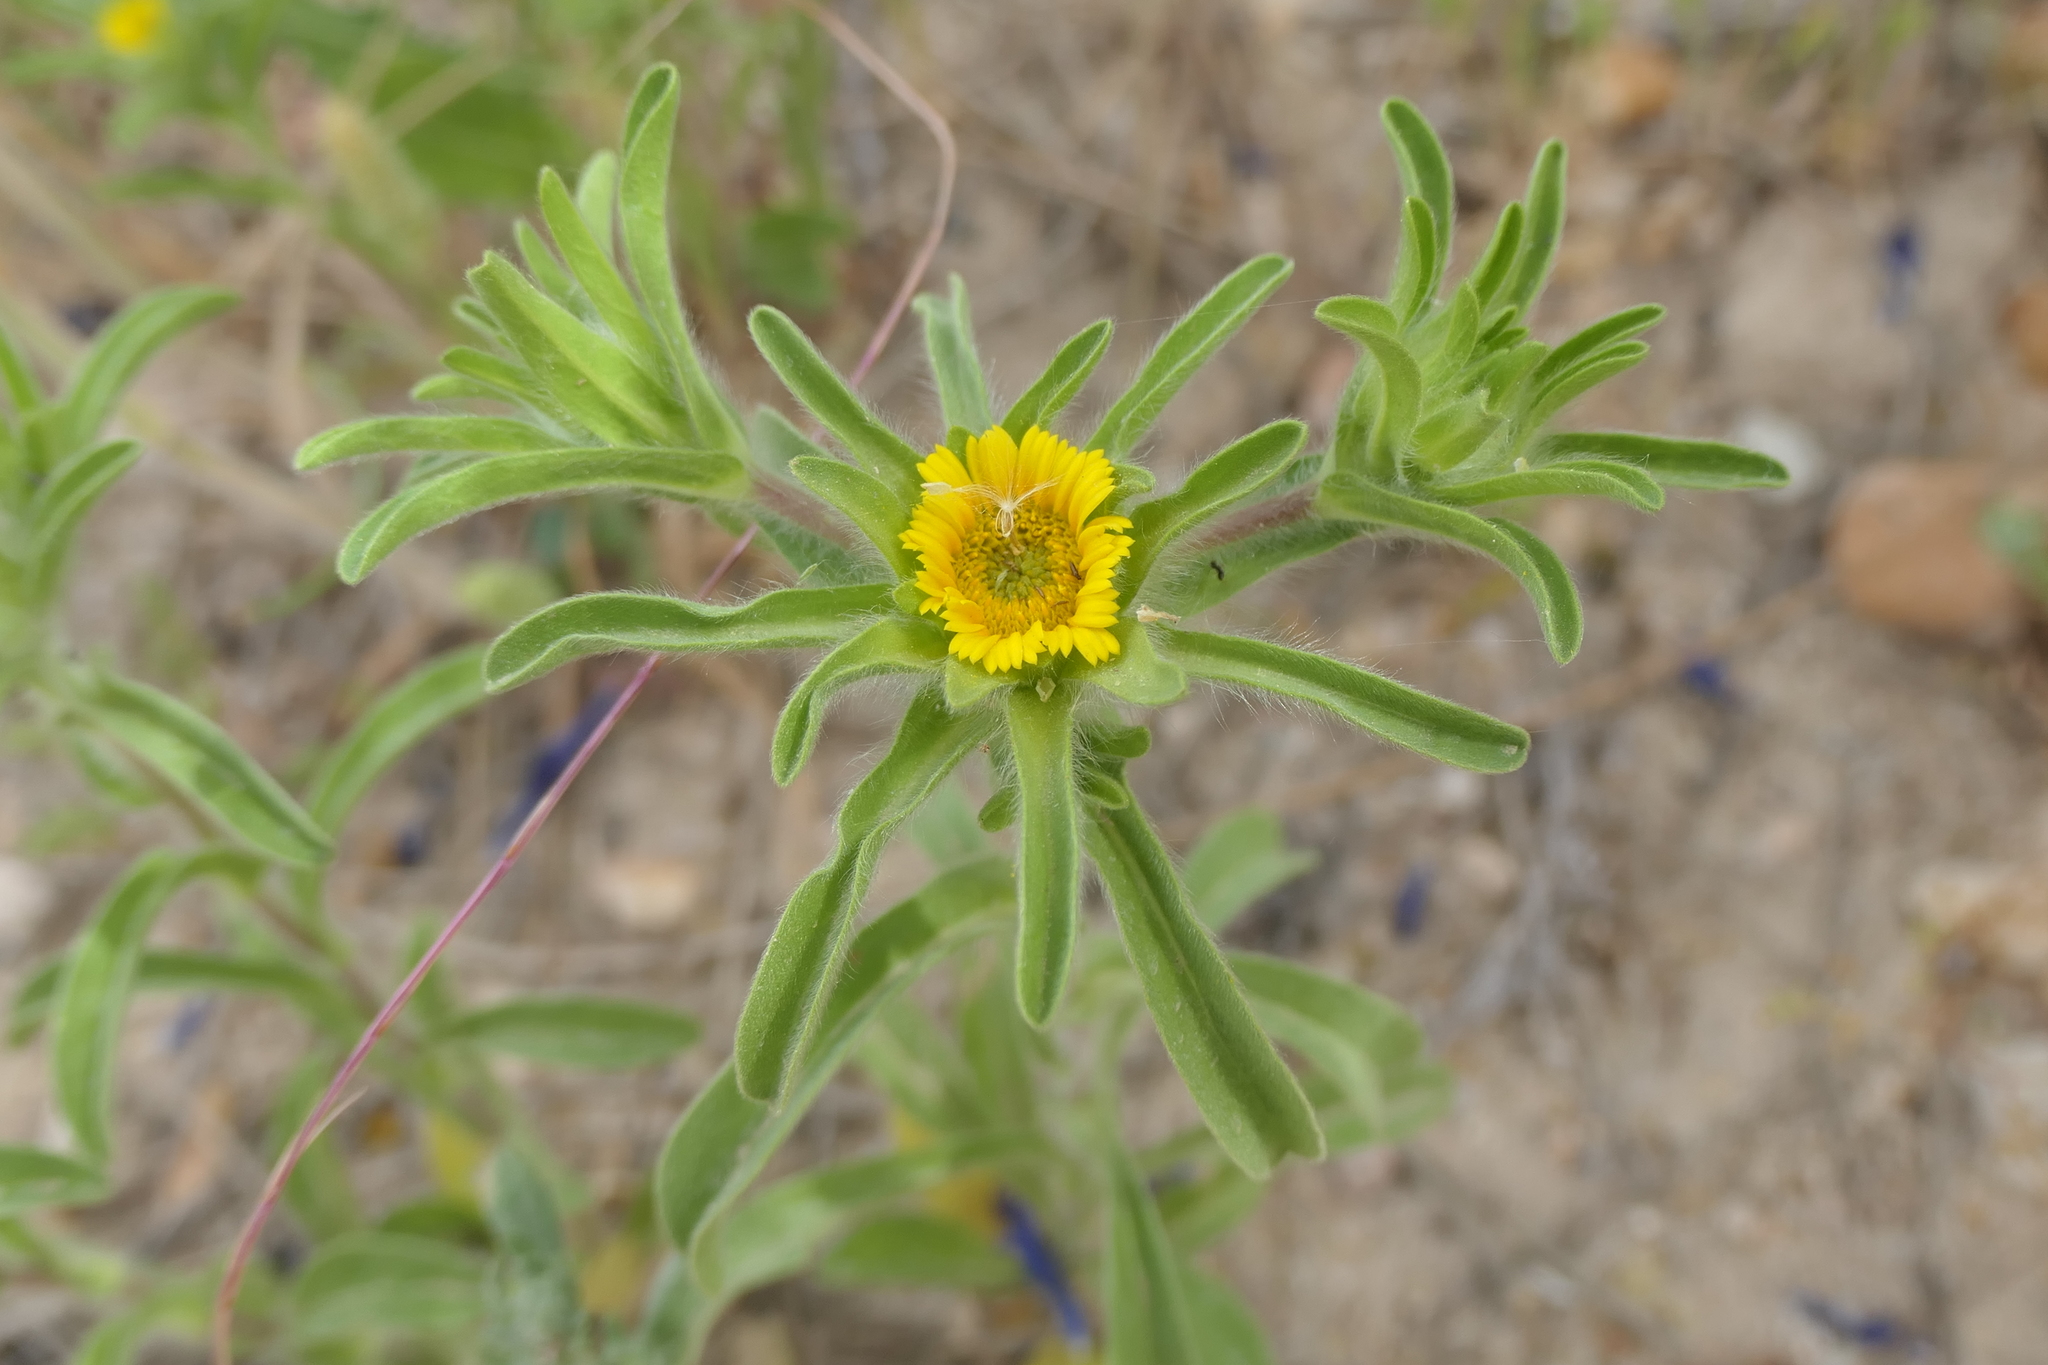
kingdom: Plantae
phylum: Tracheophyta
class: Magnoliopsida
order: Asterales
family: Asteraceae
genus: Asteriscus
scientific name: Asteriscus aquaticus
